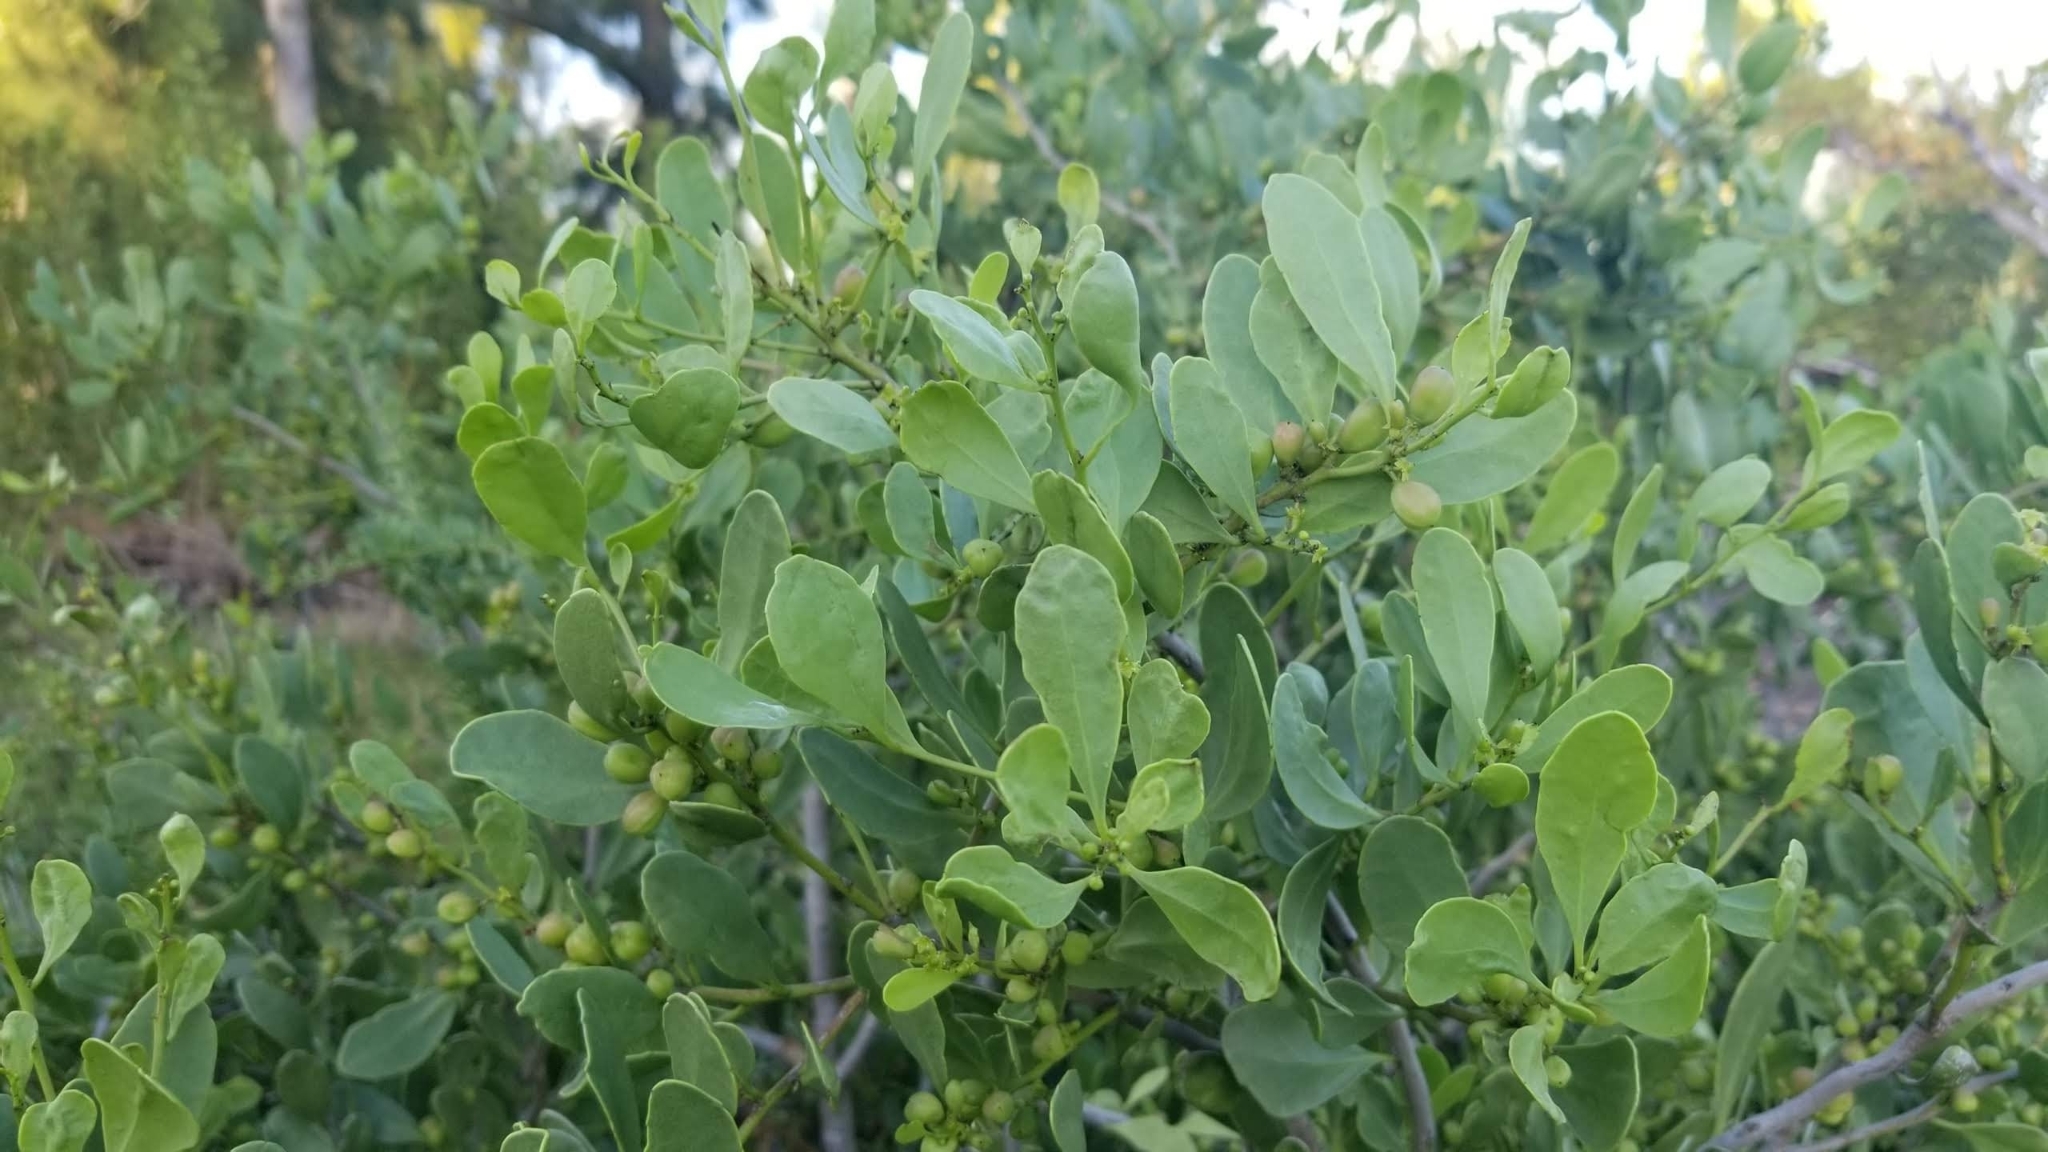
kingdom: Plantae
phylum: Tracheophyta
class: Magnoliopsida
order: Celastrales
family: Celastraceae
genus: Tricerma
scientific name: Tricerma phyllanthoides
